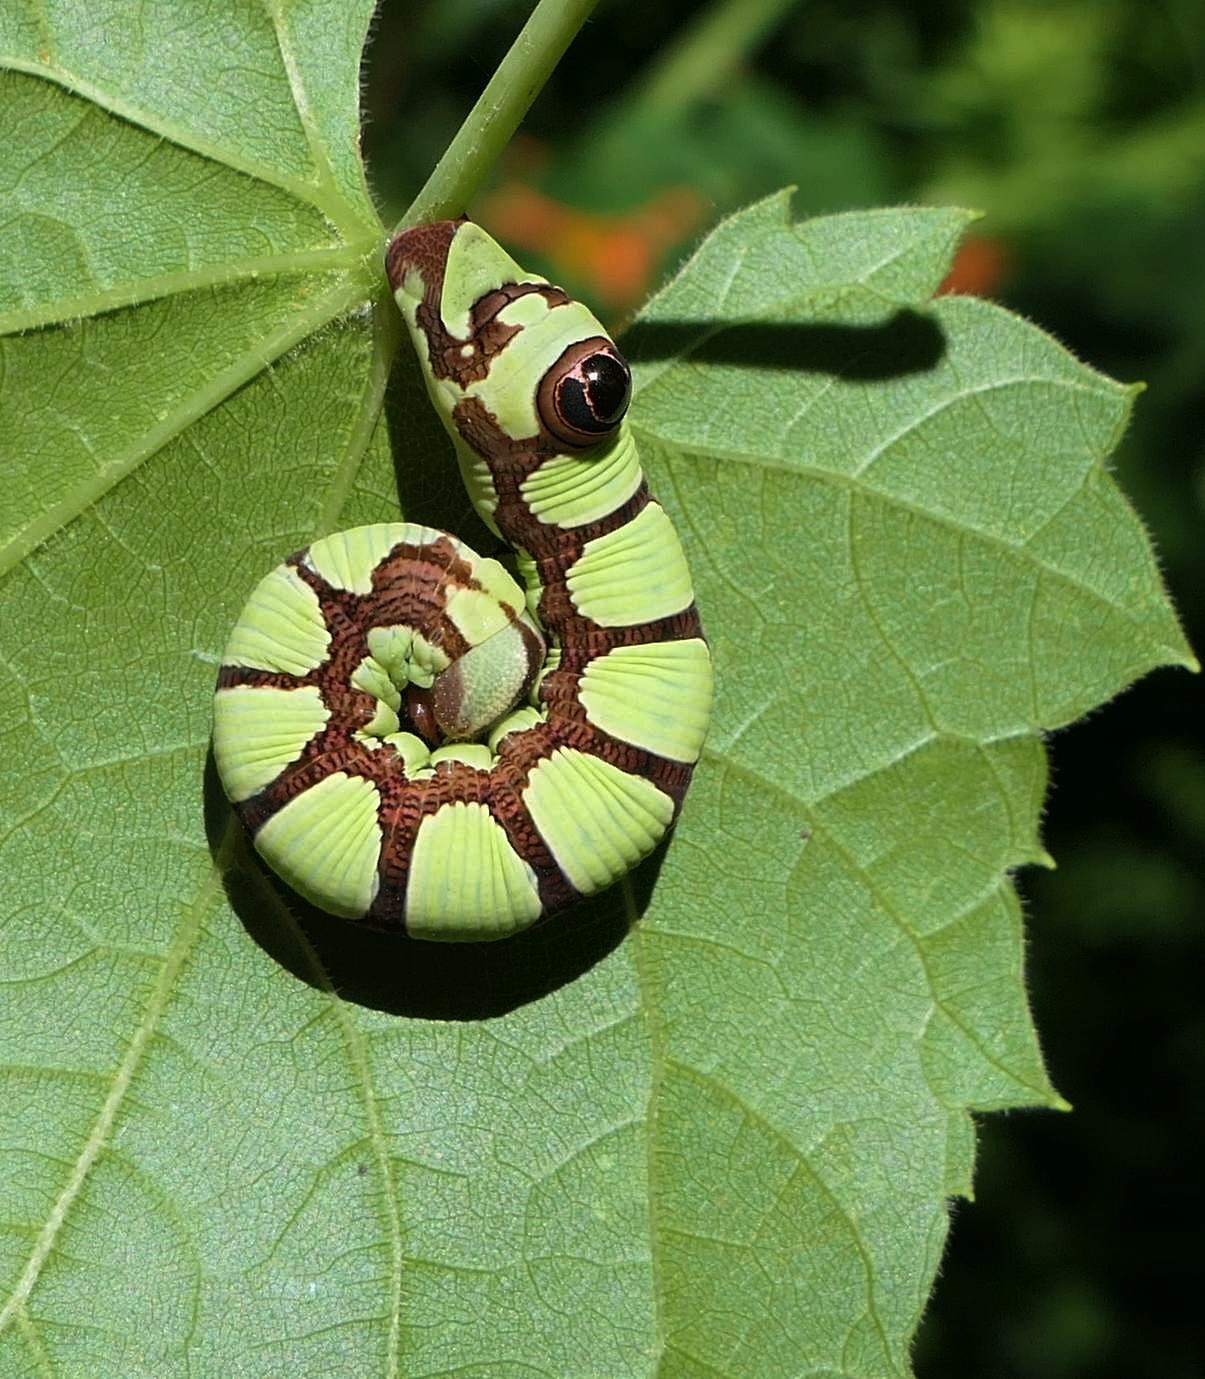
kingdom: Animalia
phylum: Arthropoda
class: Insecta
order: Lepidoptera
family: Sphingidae
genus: Sphecodina
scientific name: Sphecodina abbottii
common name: Abbott's sphinx
